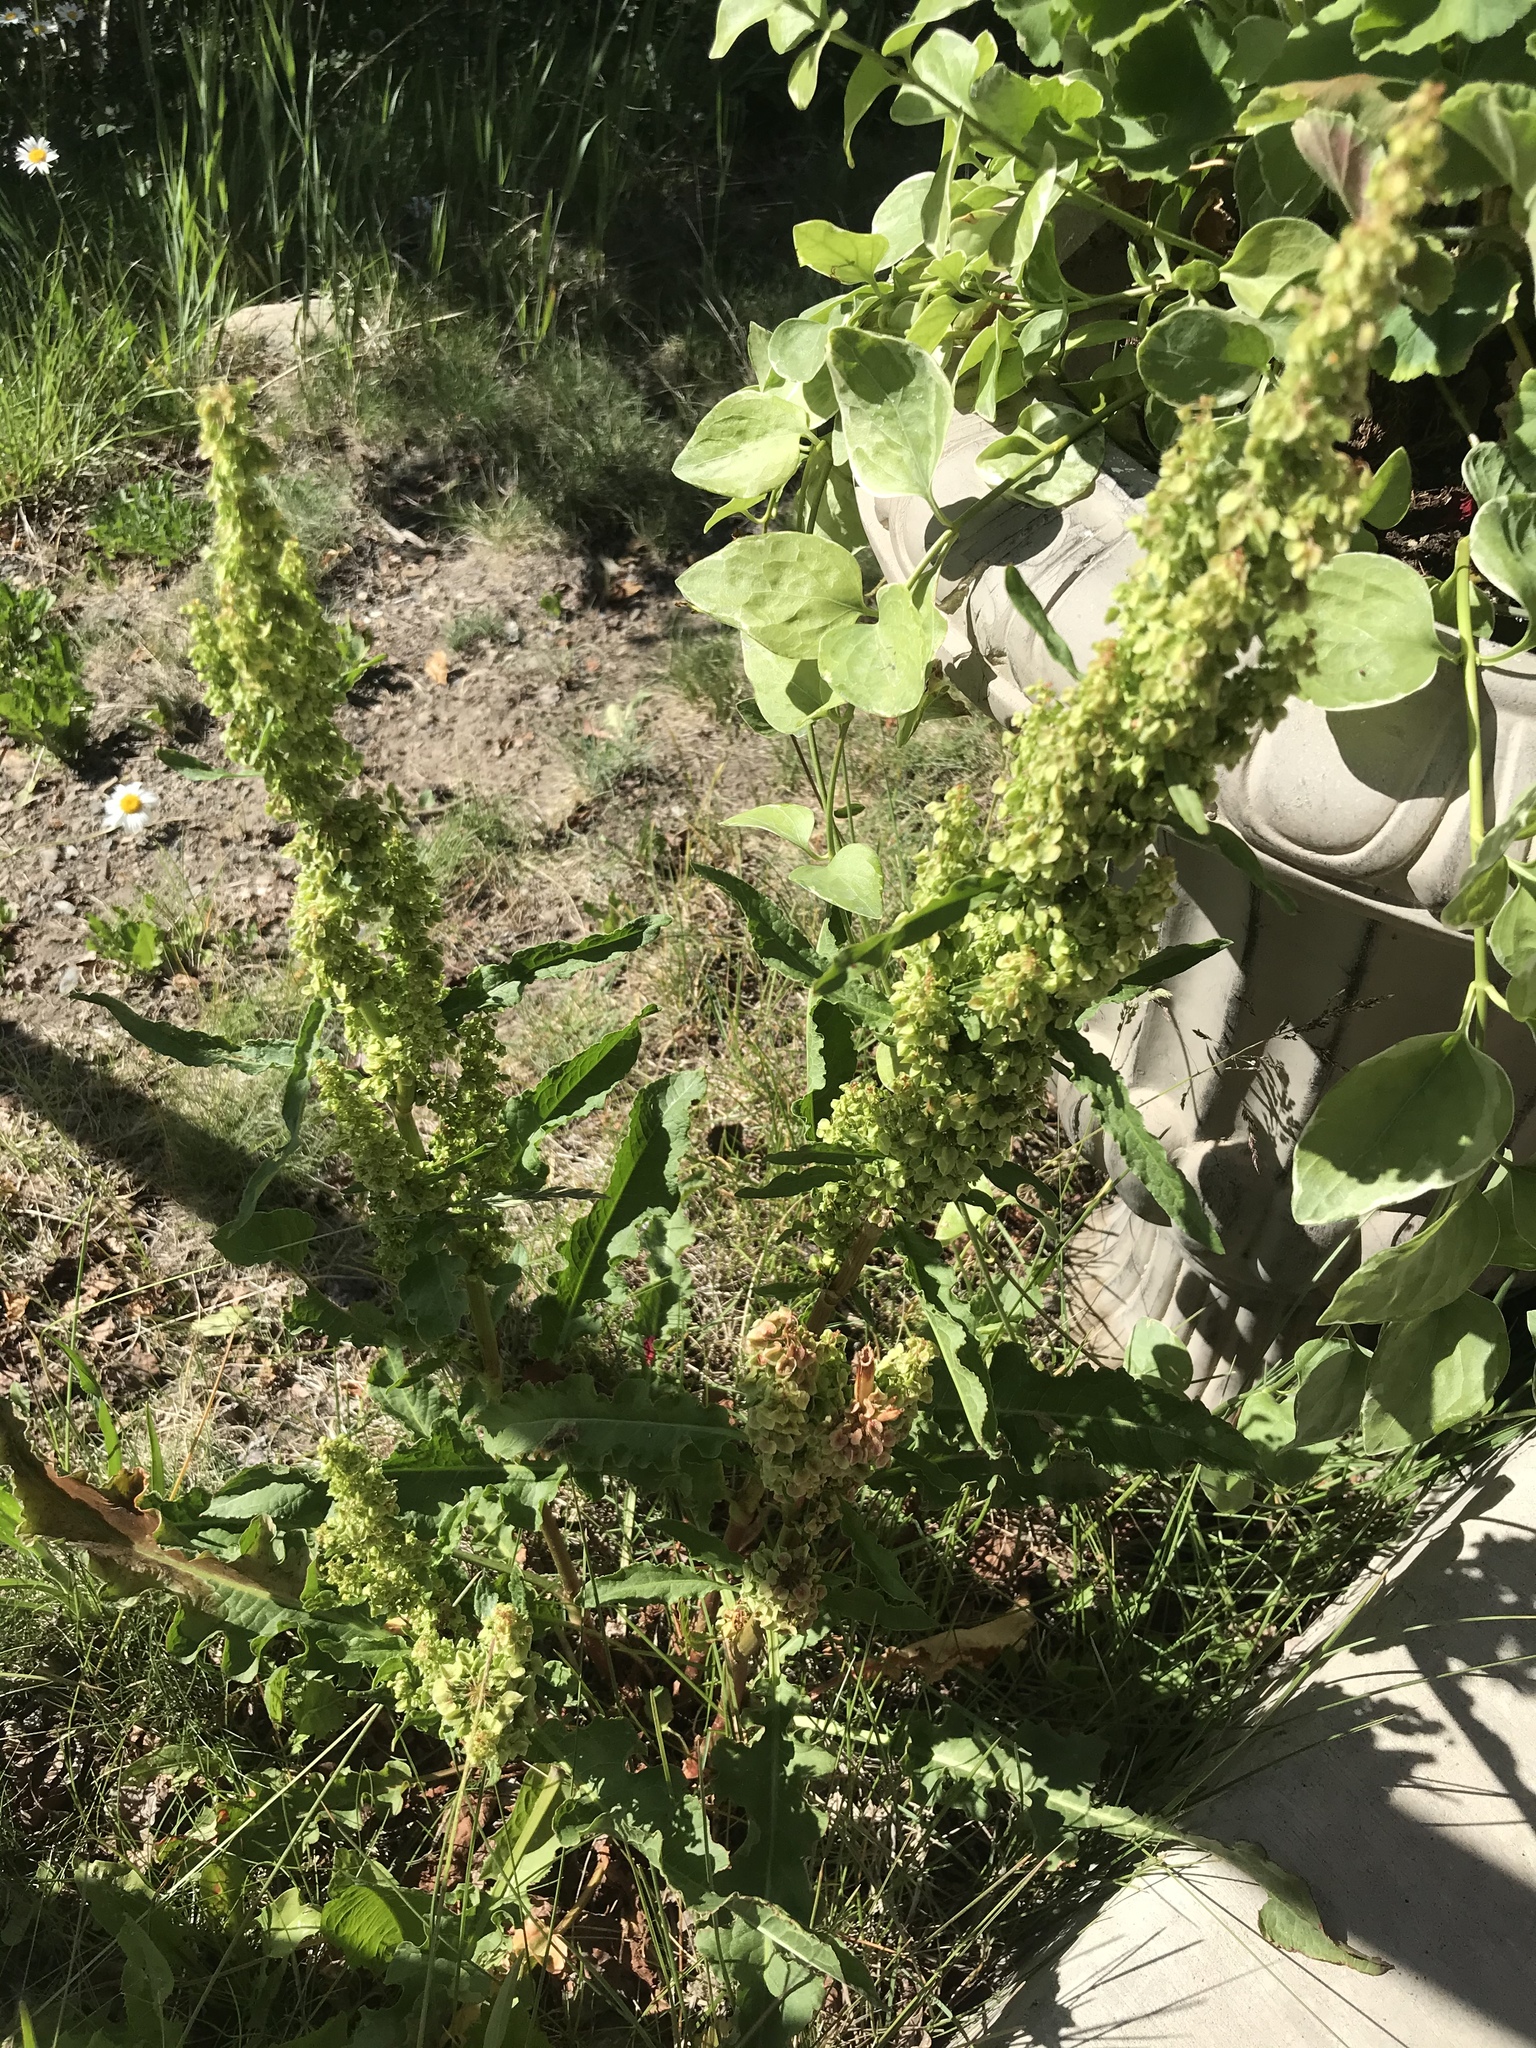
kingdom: Plantae
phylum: Tracheophyta
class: Magnoliopsida
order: Caryophyllales
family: Polygonaceae
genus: Rumex
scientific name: Rumex crispus
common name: Curled dock
